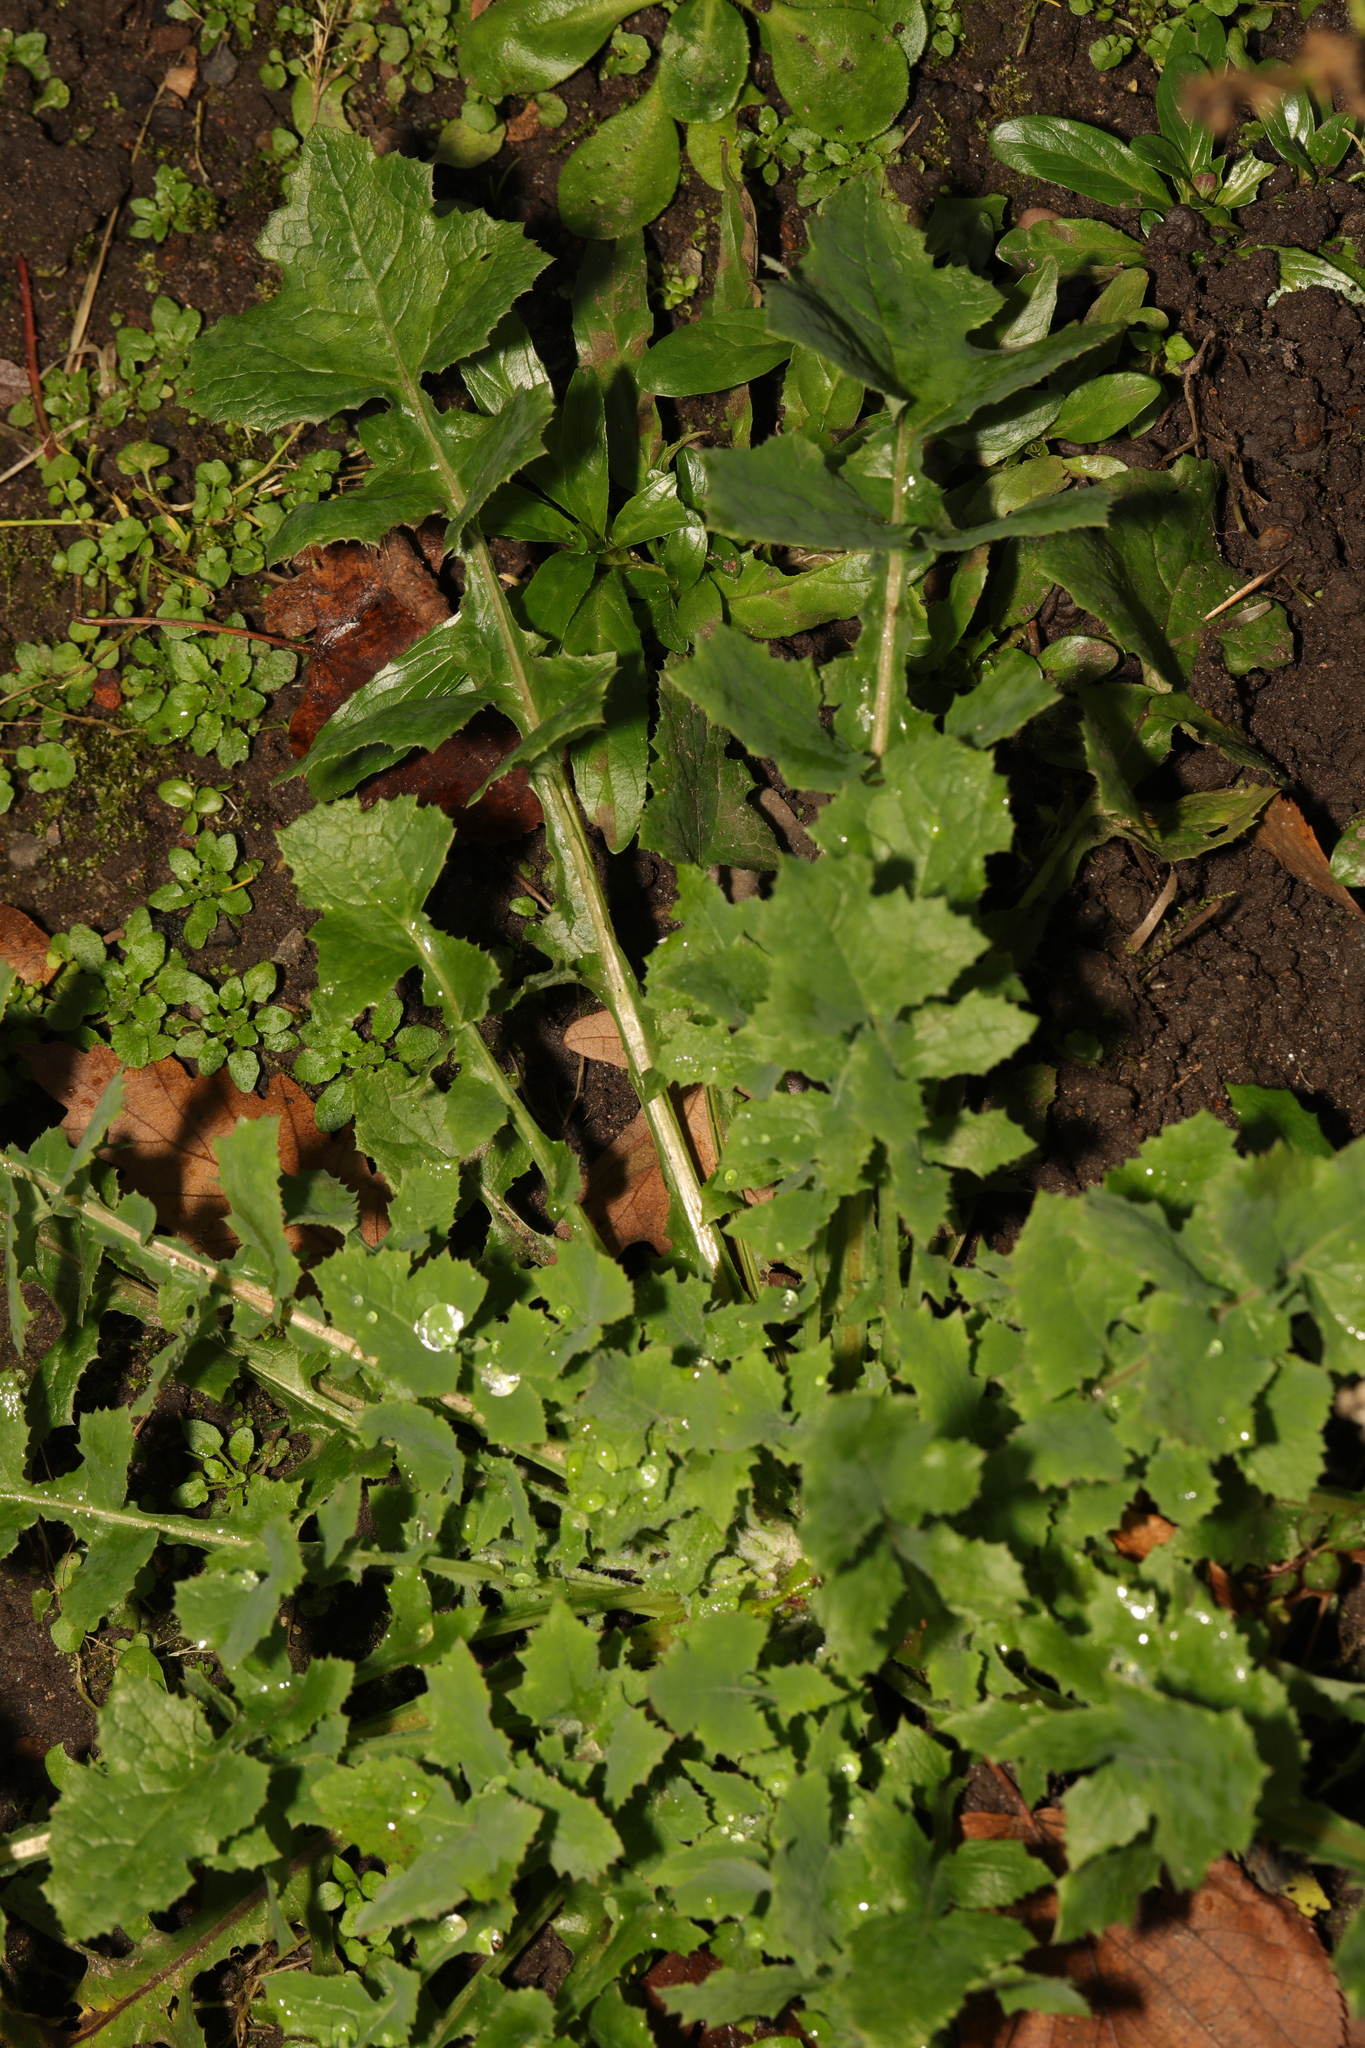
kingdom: Plantae
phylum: Tracheophyta
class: Magnoliopsida
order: Asterales
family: Asteraceae
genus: Sonchus
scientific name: Sonchus oleraceus
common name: Common sowthistle
